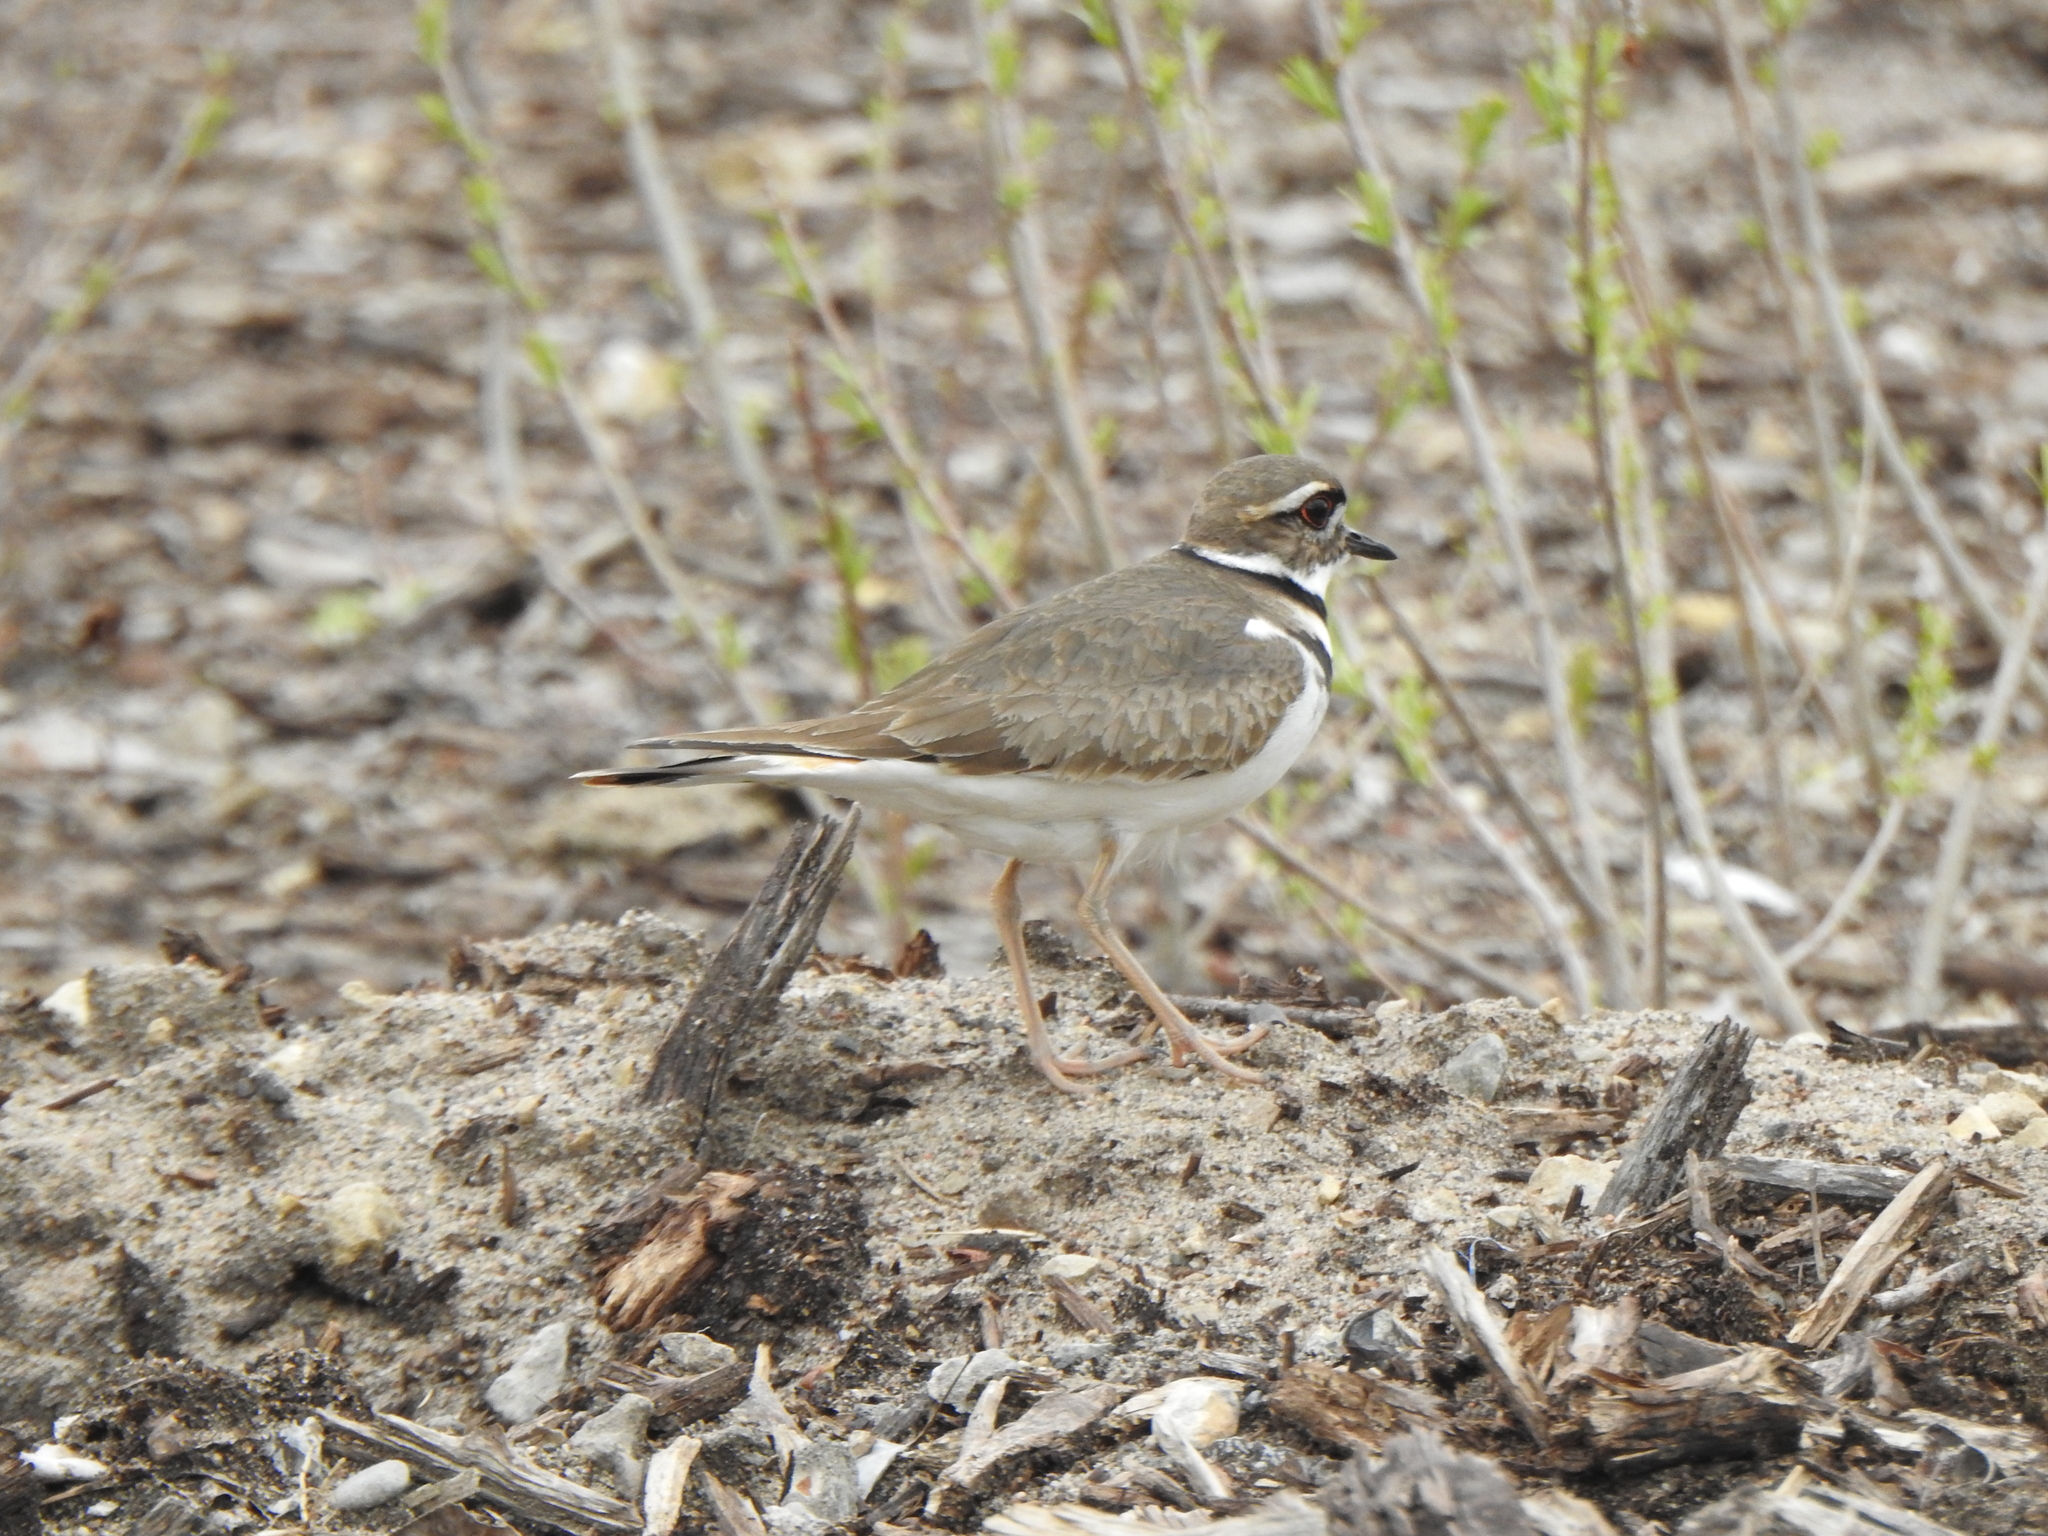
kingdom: Animalia
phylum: Chordata
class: Aves
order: Charadriiformes
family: Charadriidae
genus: Charadrius
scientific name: Charadrius vociferus
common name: Killdeer
